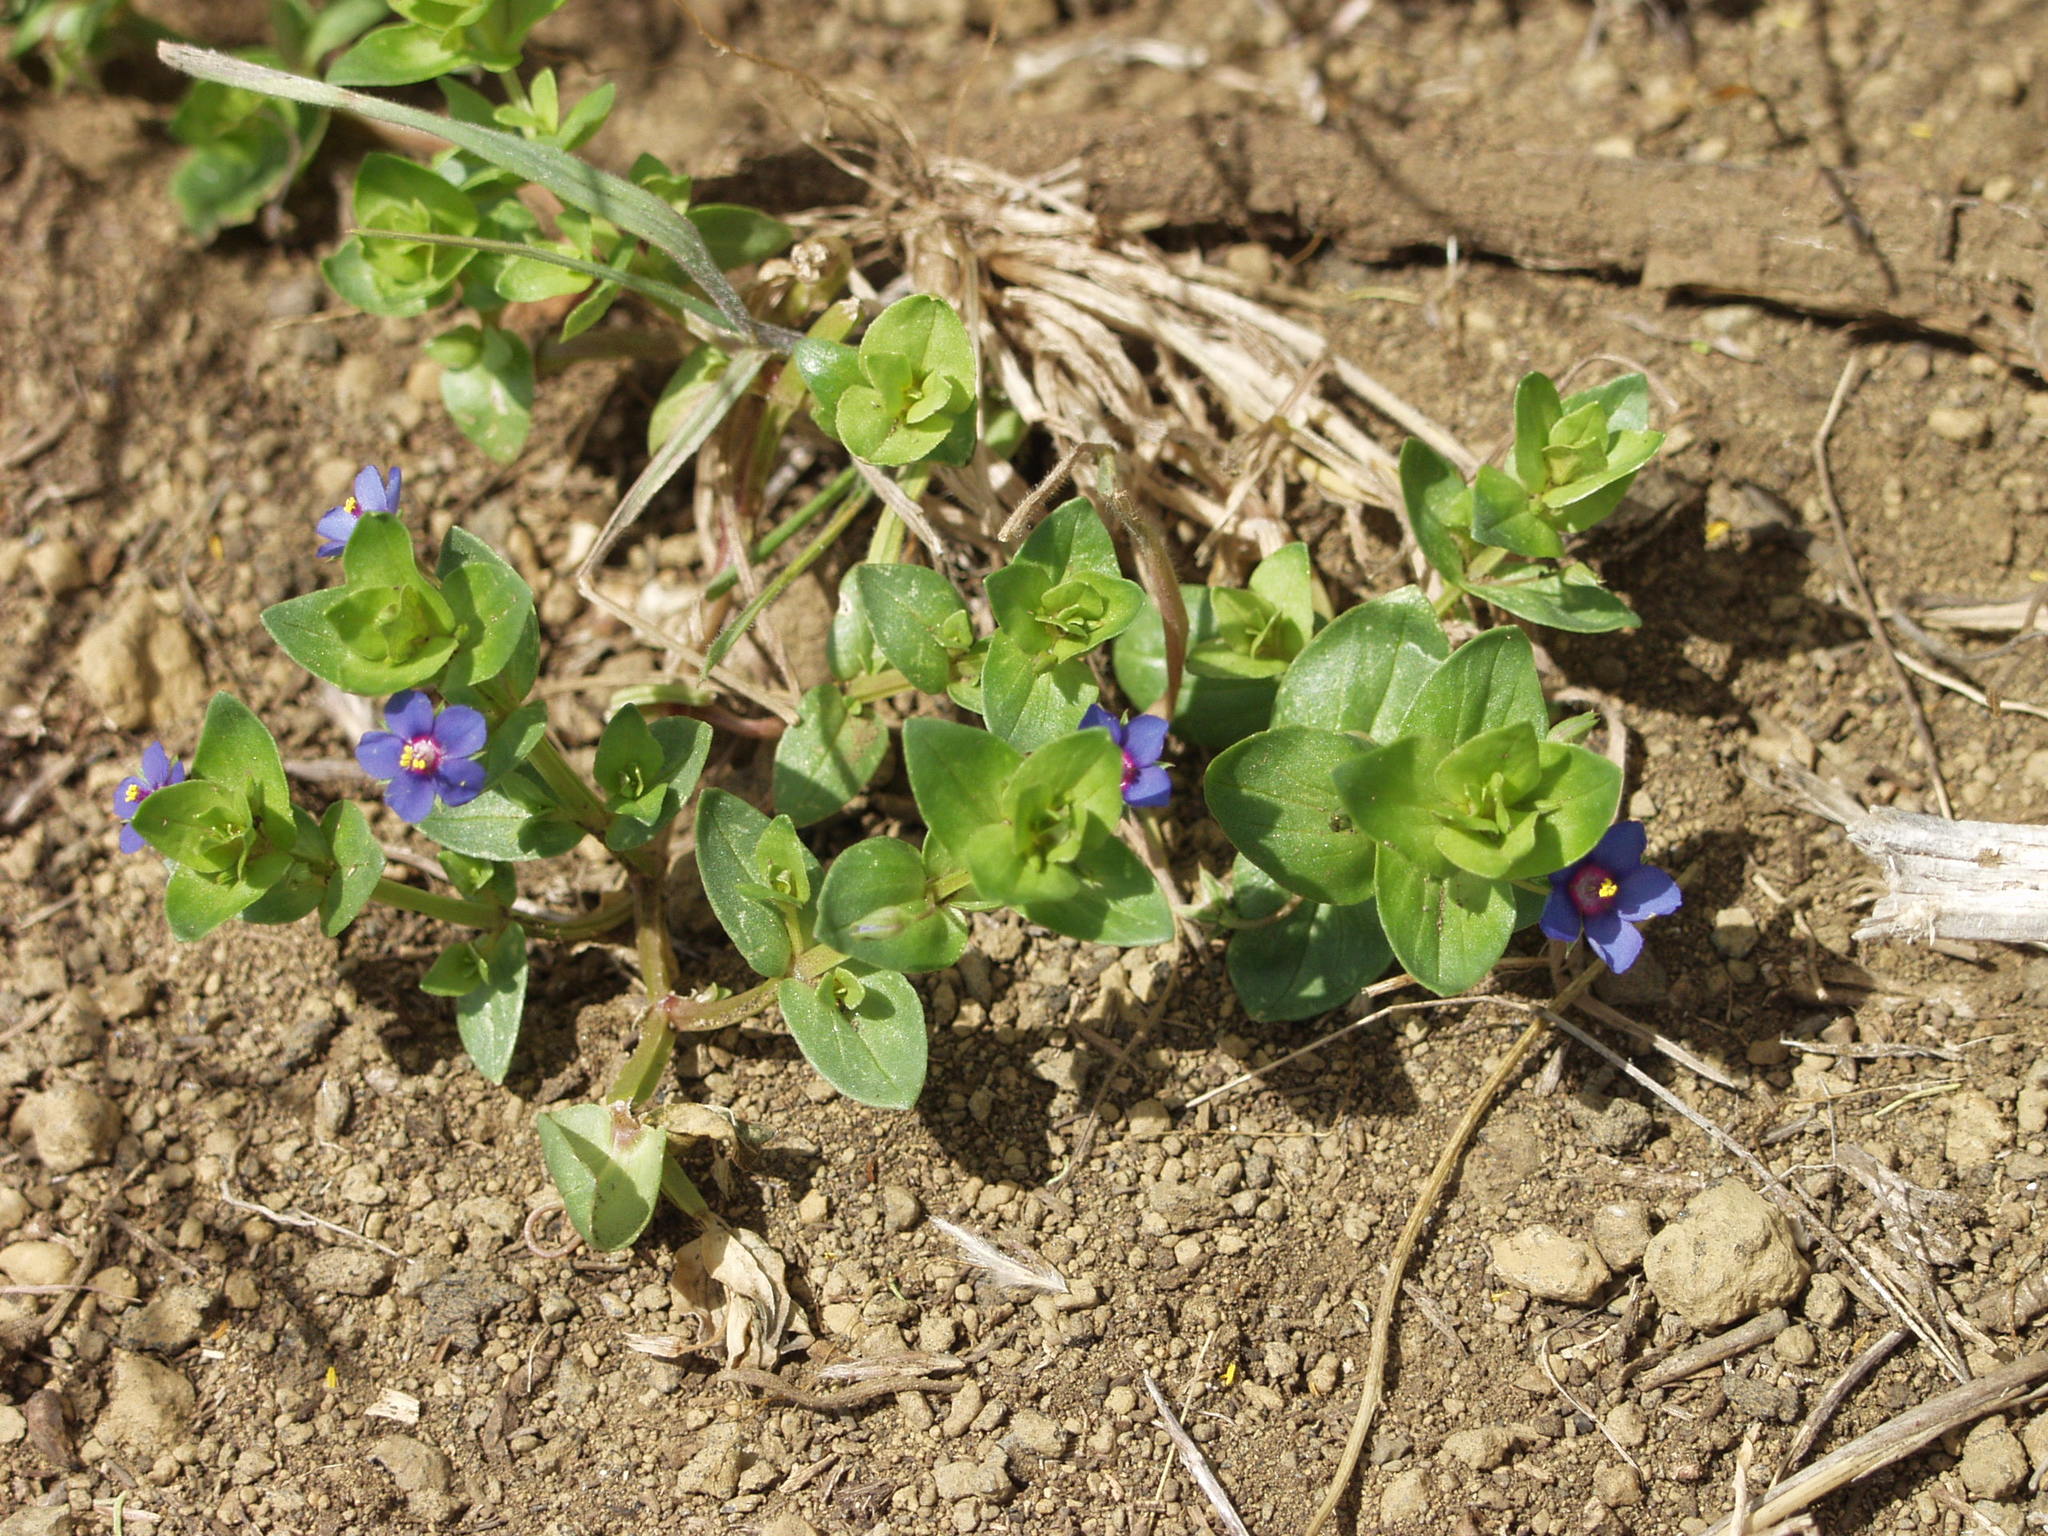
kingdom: Plantae
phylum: Tracheophyta
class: Magnoliopsida
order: Ericales
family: Primulaceae
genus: Lysimachia
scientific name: Lysimachia loeflingii
